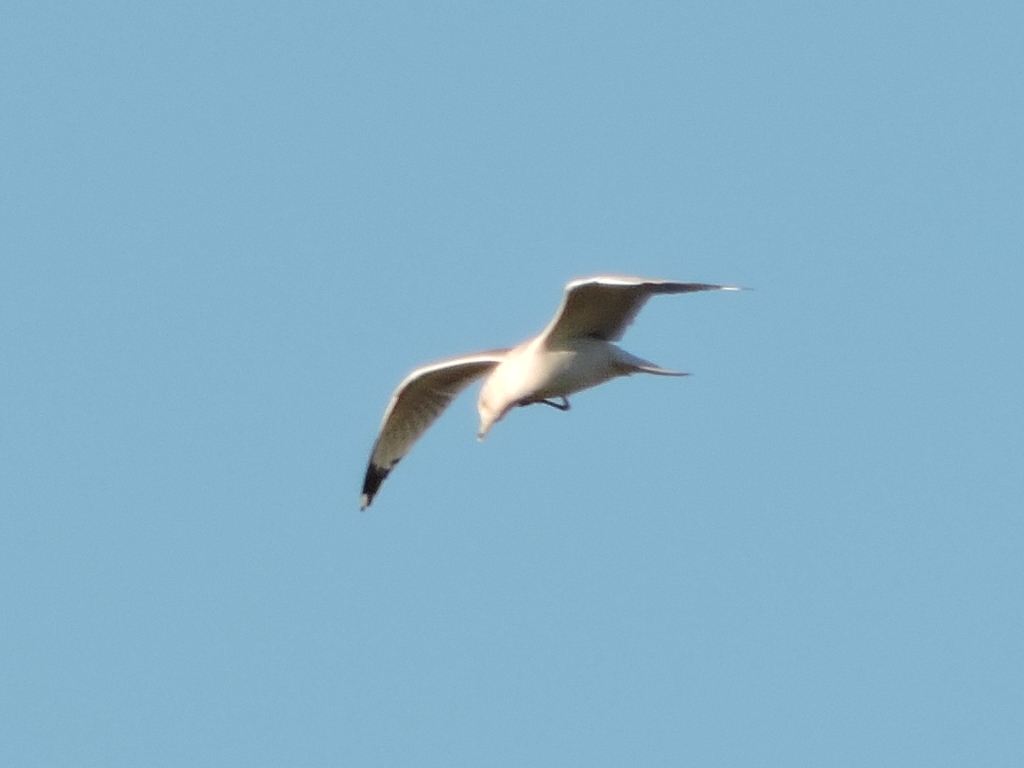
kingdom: Animalia
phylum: Chordata
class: Aves
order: Charadriiformes
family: Laridae
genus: Larus
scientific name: Larus delawarensis
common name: Ring-billed gull
